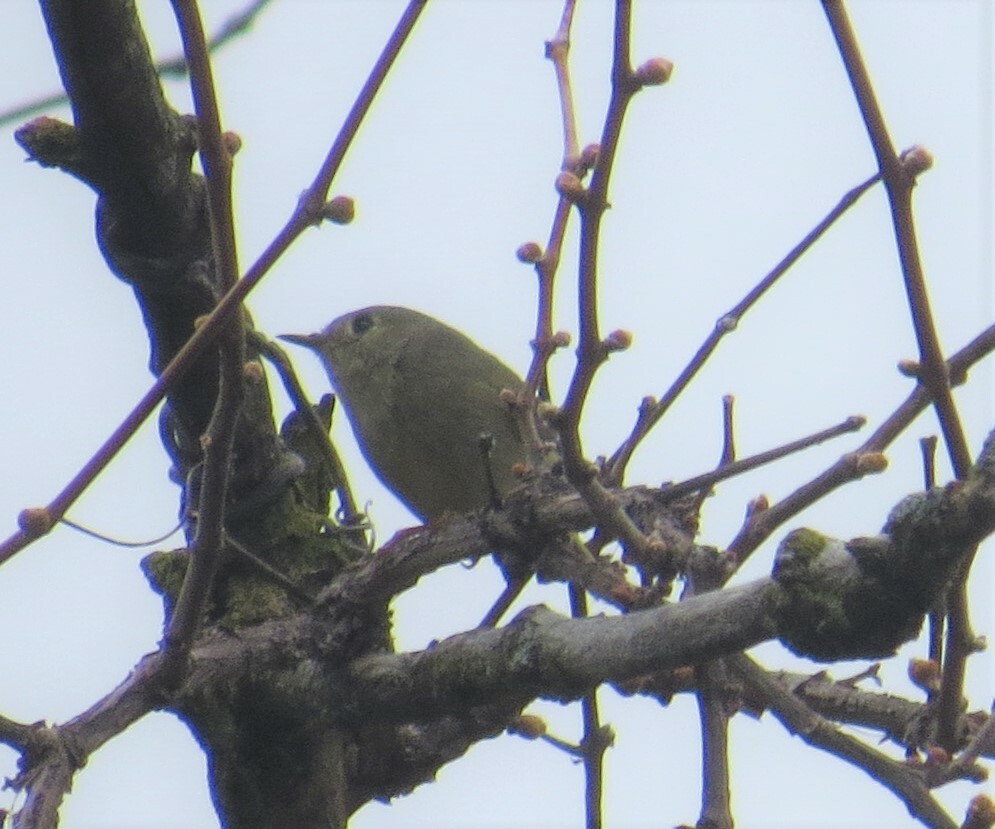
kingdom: Animalia
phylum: Chordata
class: Aves
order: Passeriformes
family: Regulidae
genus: Regulus
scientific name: Regulus calendula
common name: Ruby-crowned kinglet
